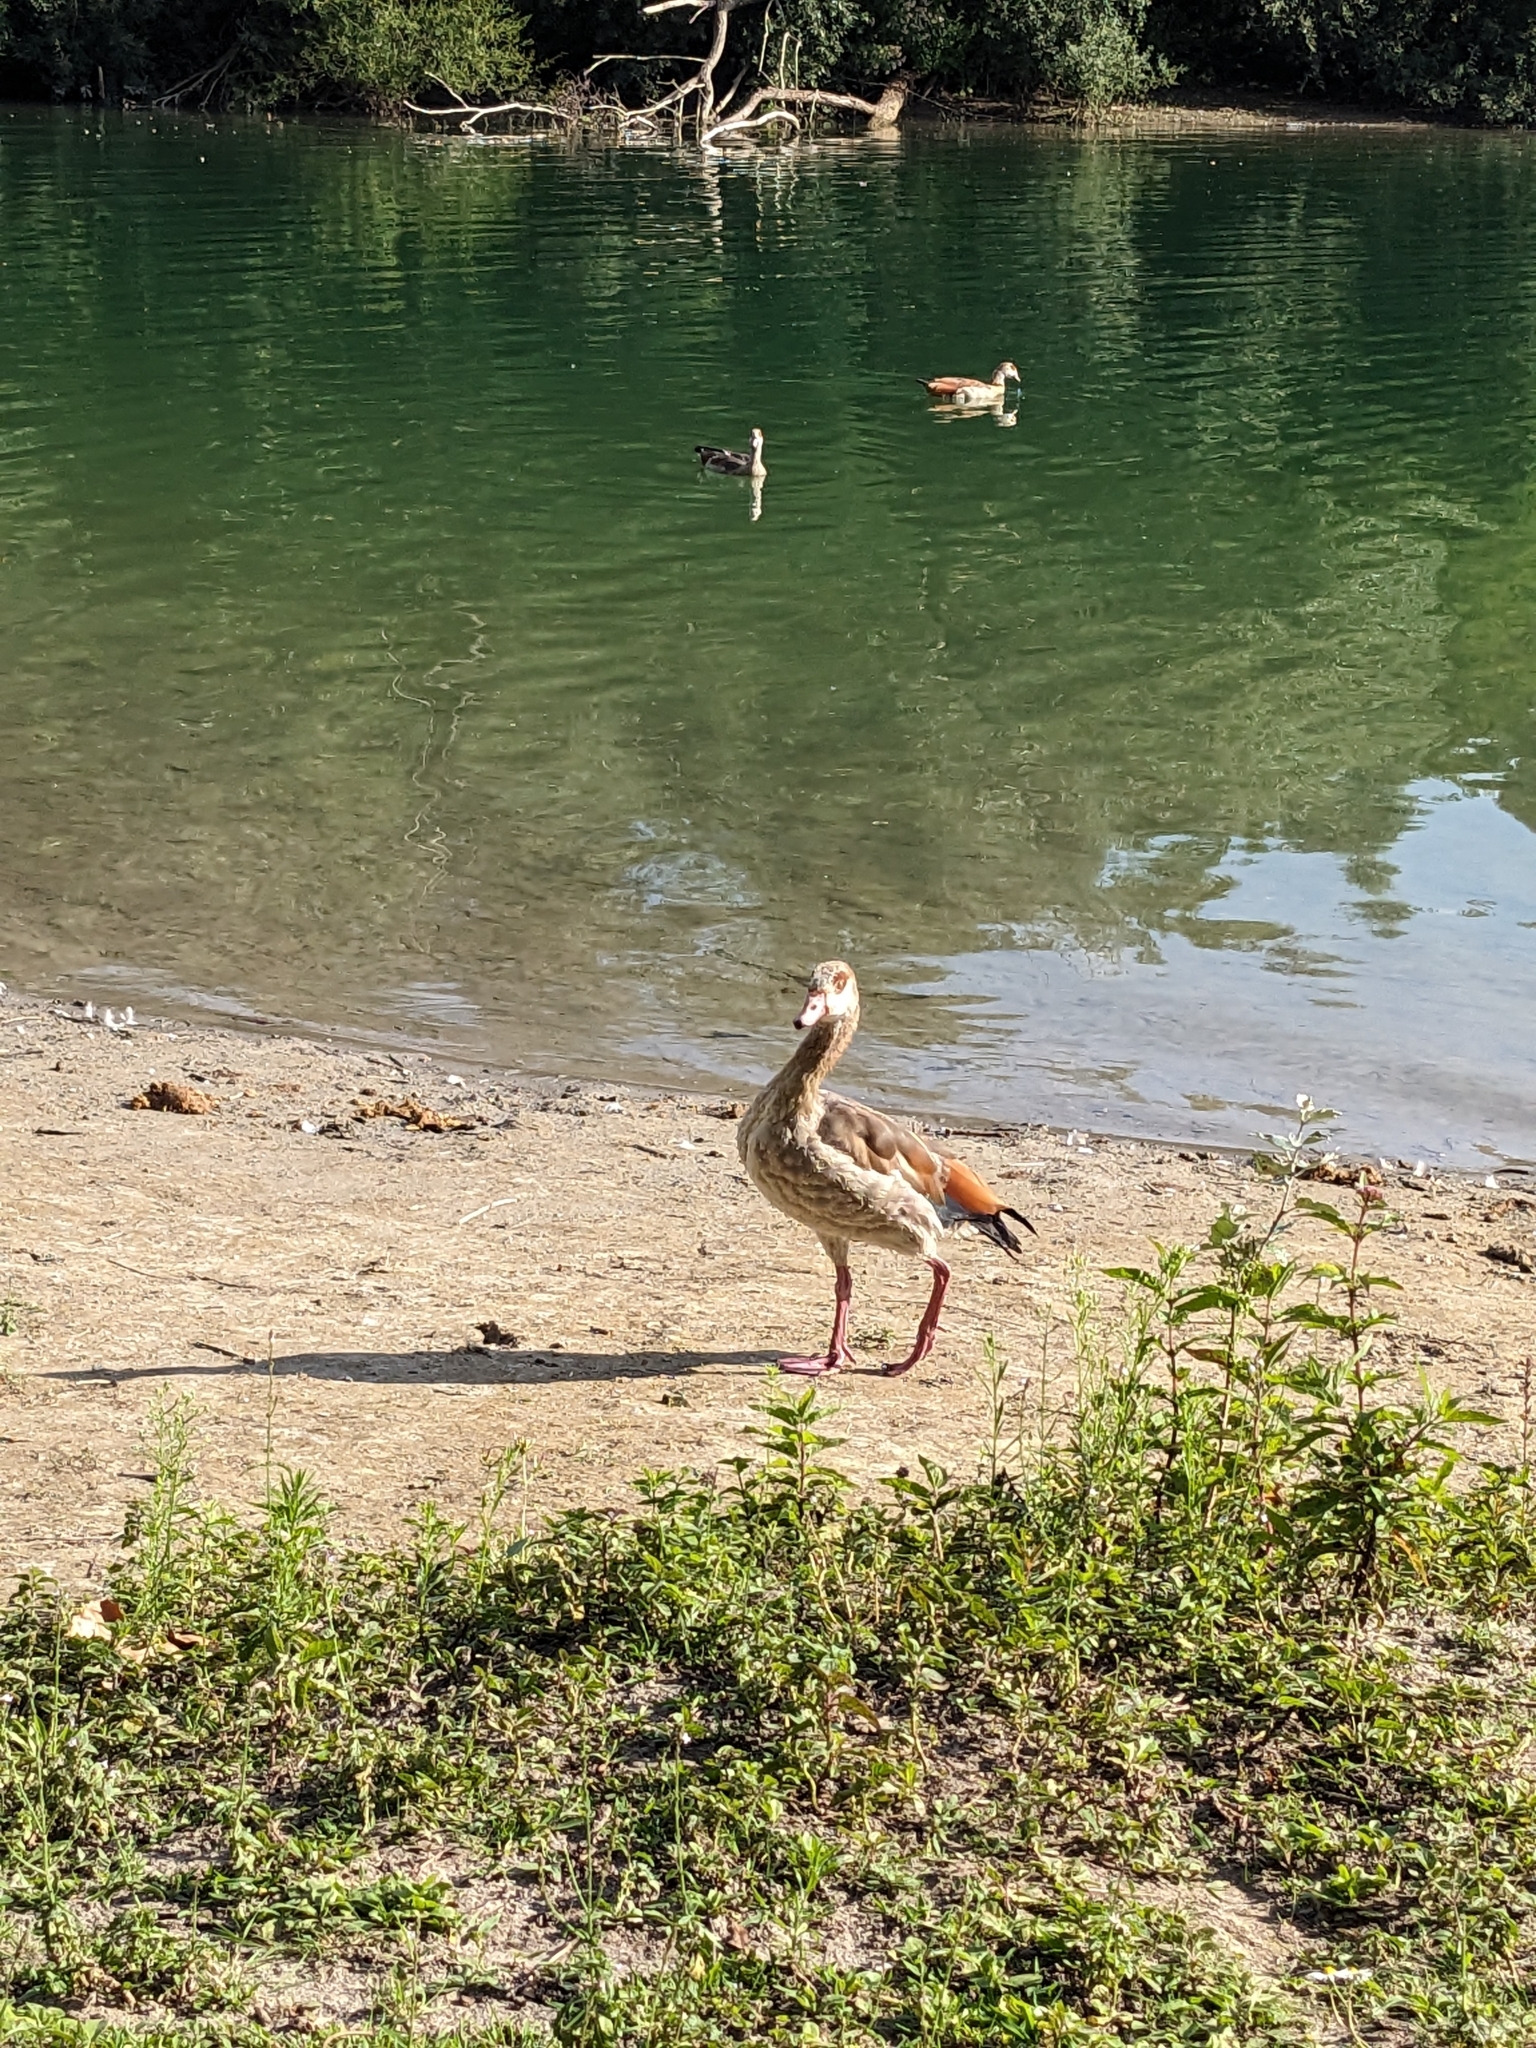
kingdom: Animalia
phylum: Chordata
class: Aves
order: Anseriformes
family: Anatidae
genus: Alopochen
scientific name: Alopochen aegyptiaca
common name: Egyptian goose
